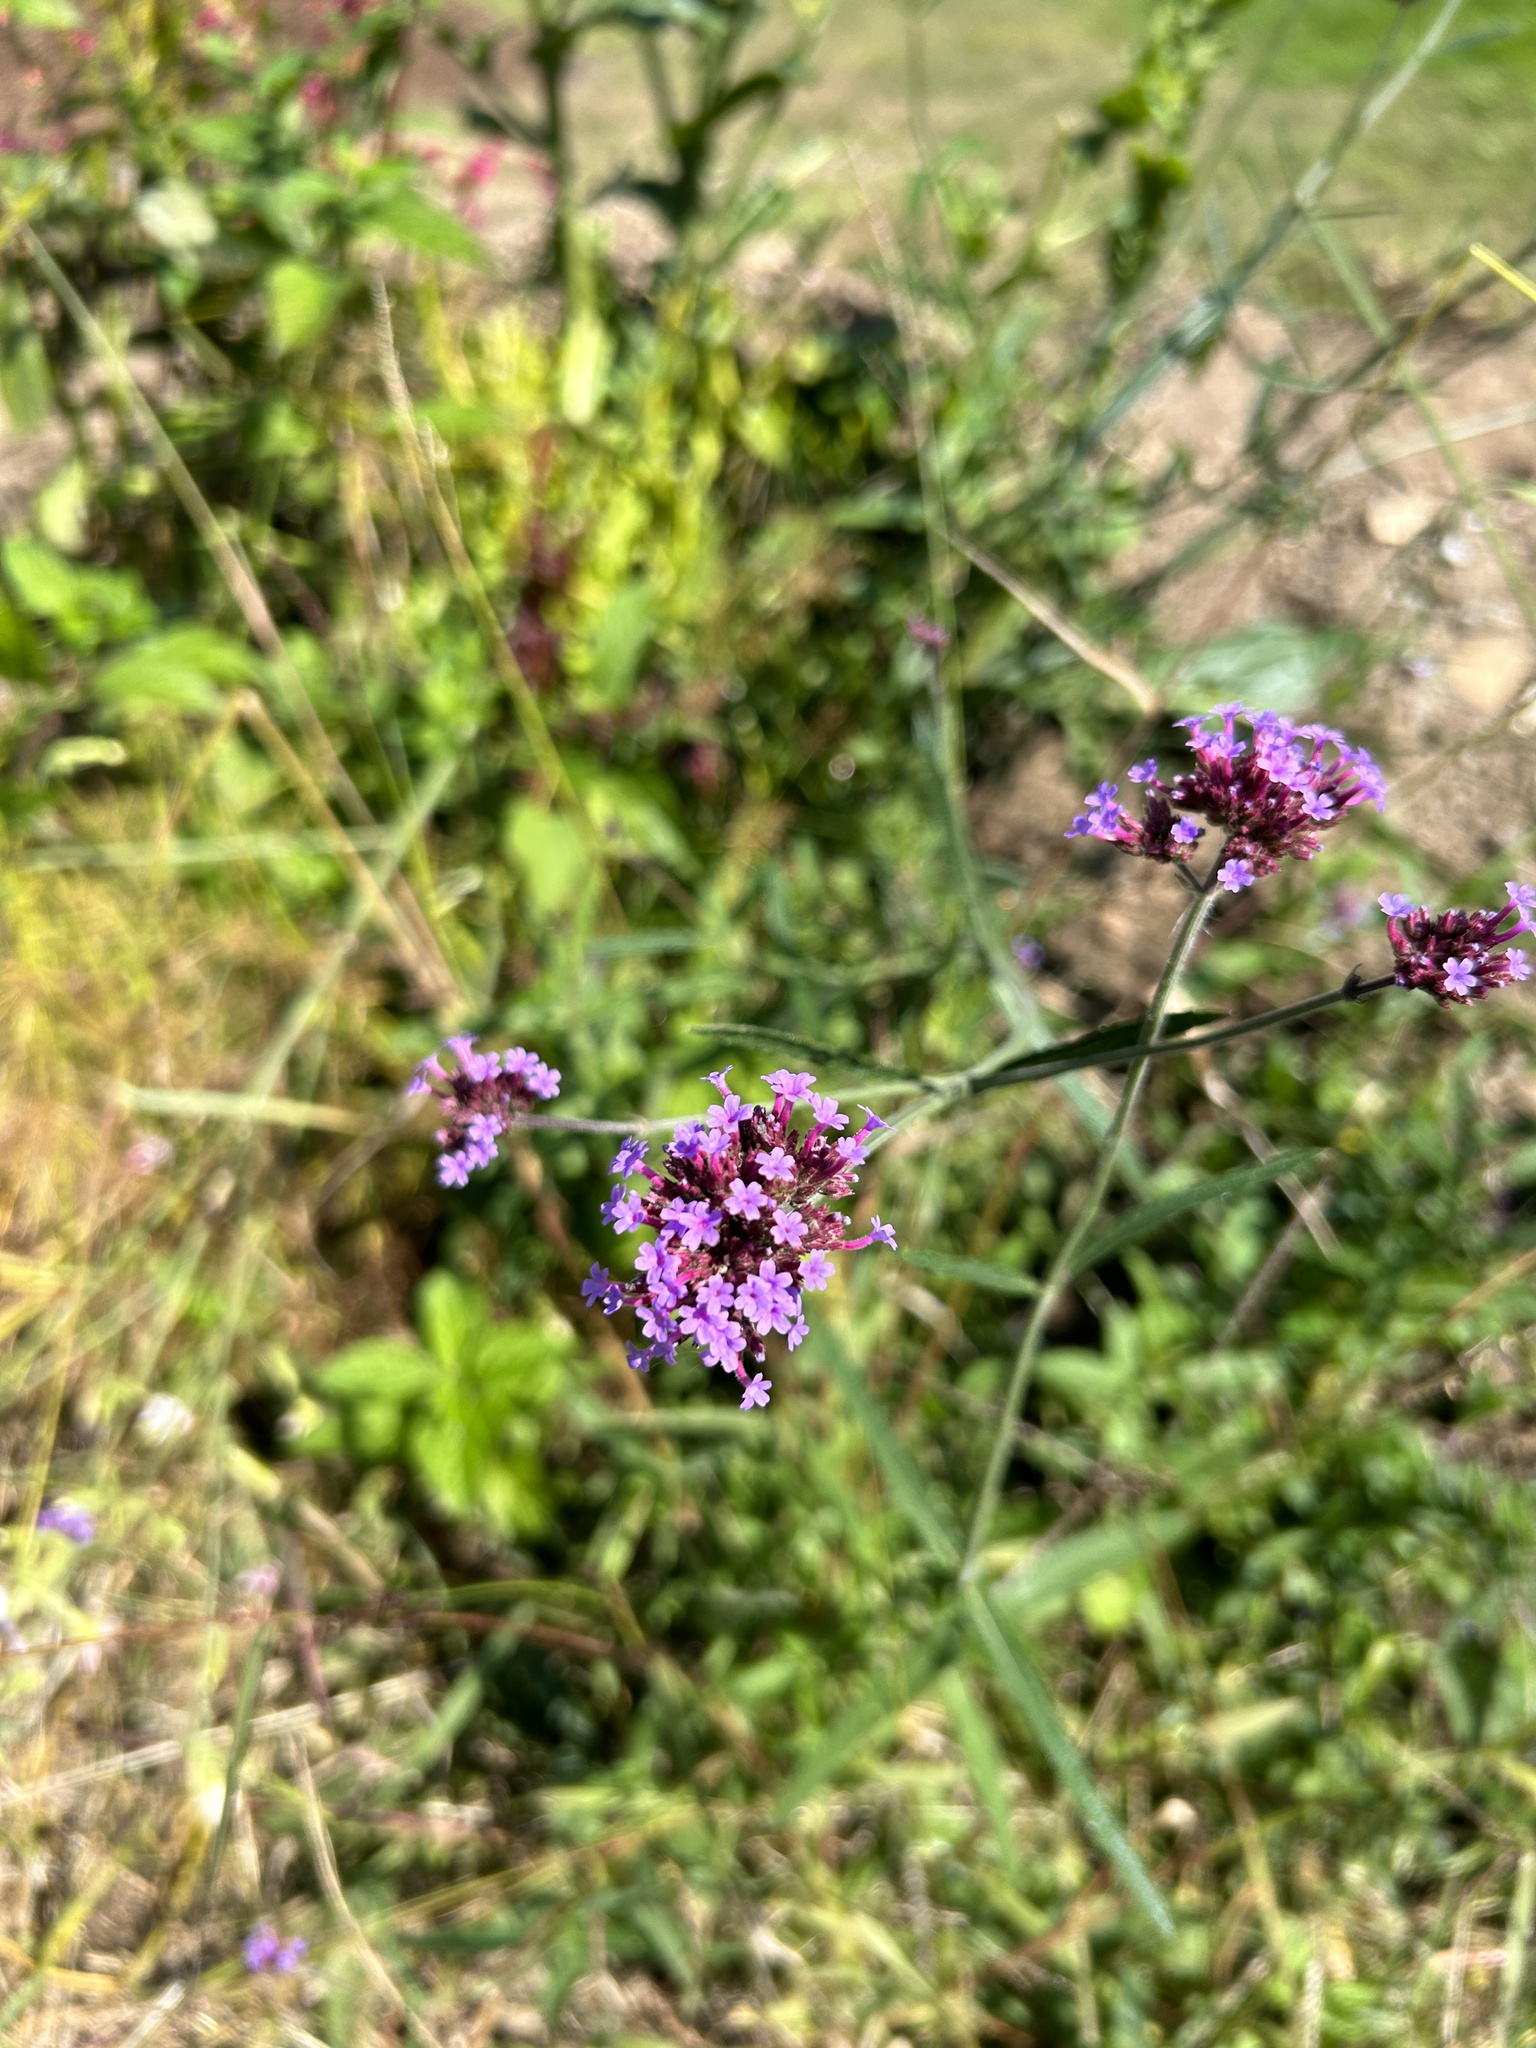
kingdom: Plantae
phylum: Tracheophyta
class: Magnoliopsida
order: Lamiales
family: Verbenaceae
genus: Verbena
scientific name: Verbena bonariensis
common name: Purpletop vervain
